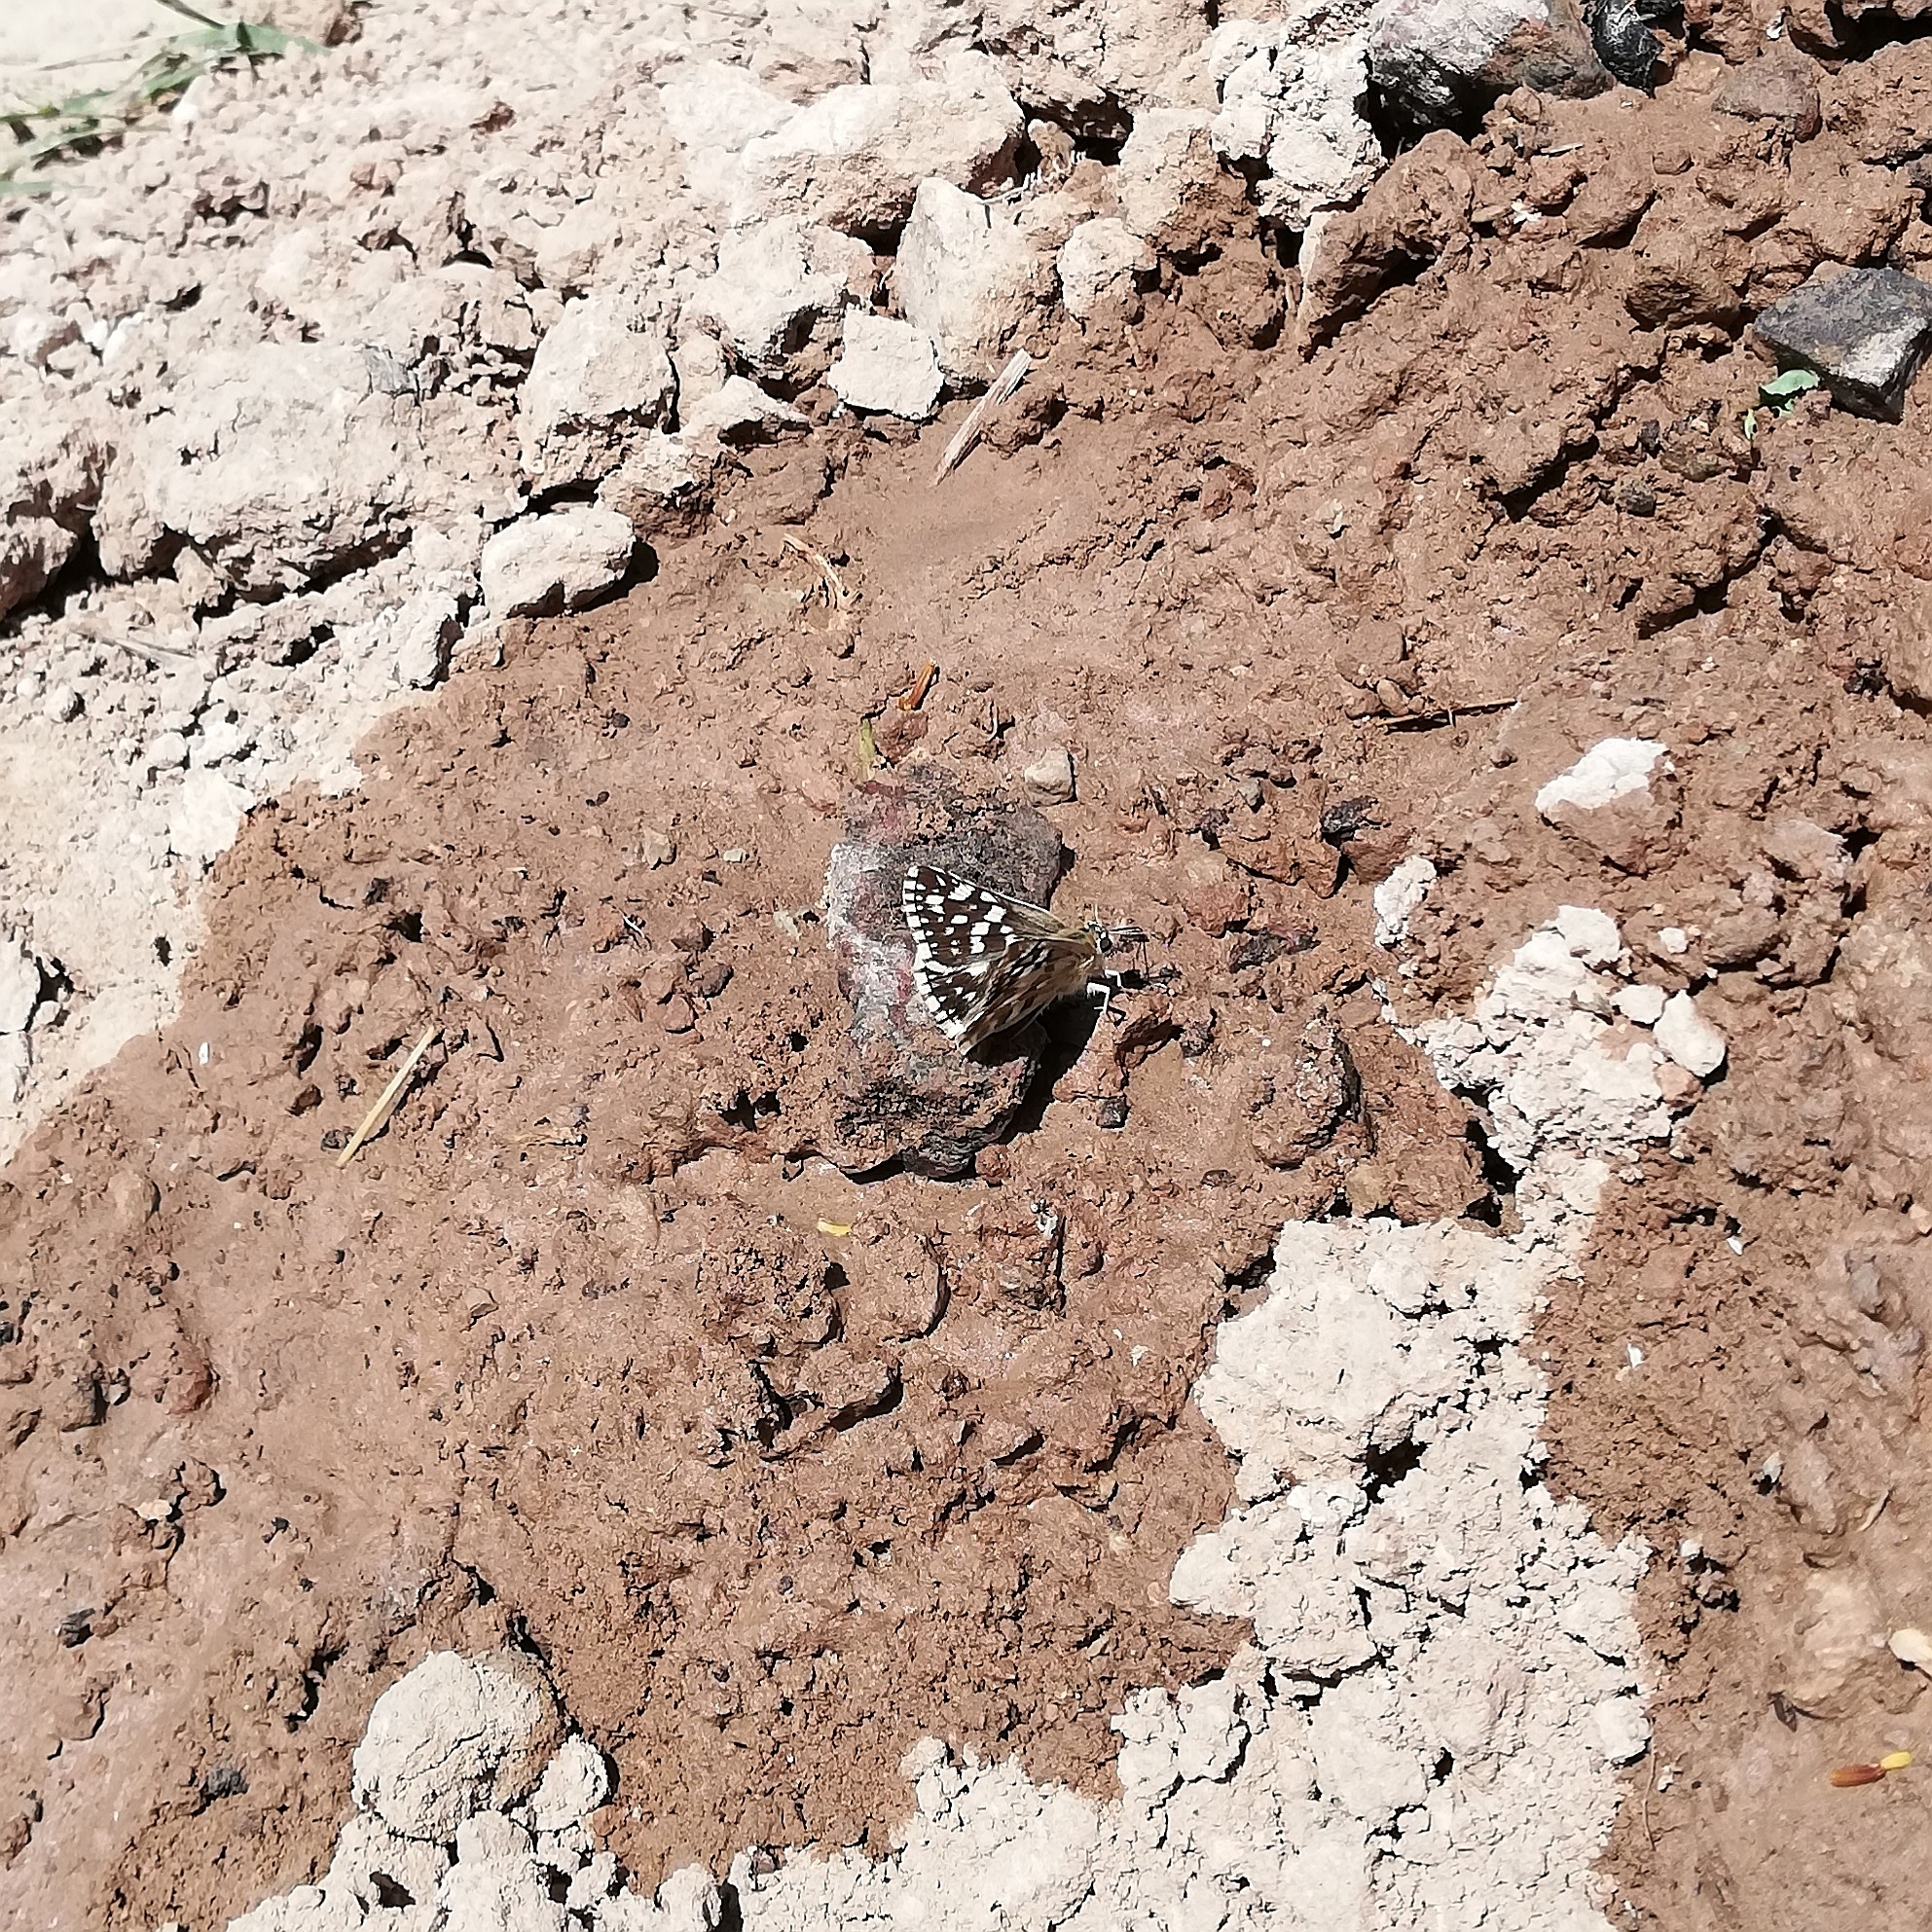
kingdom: Animalia
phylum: Arthropoda
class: Insecta
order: Lepidoptera
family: Hesperiidae
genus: Heliopetes
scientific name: Heliopetes americanus
